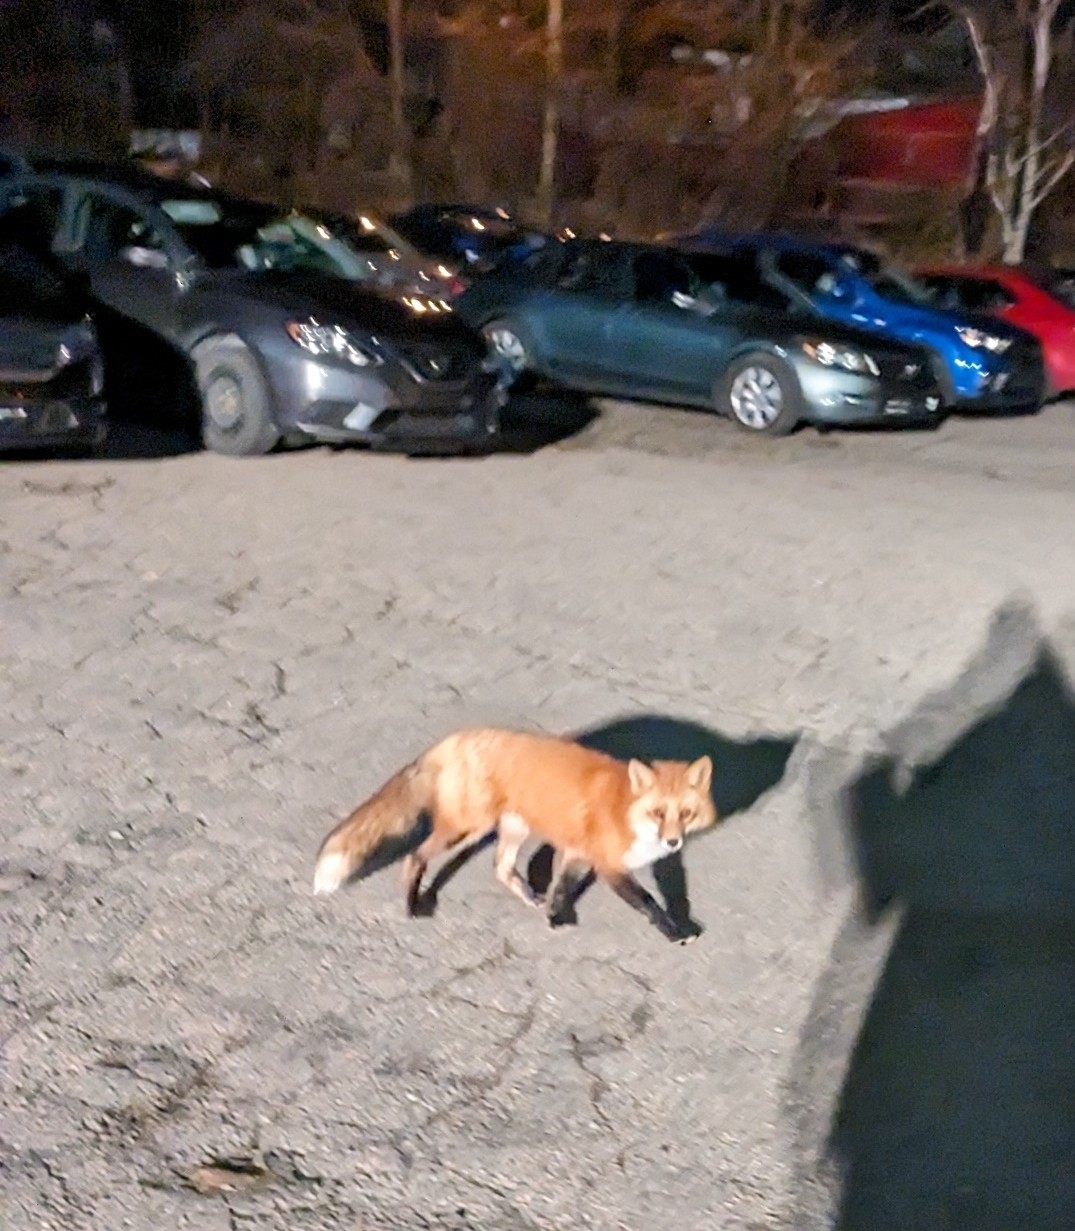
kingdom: Animalia
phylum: Chordata
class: Mammalia
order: Carnivora
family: Canidae
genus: Vulpes
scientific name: Vulpes vulpes
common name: Red fox
